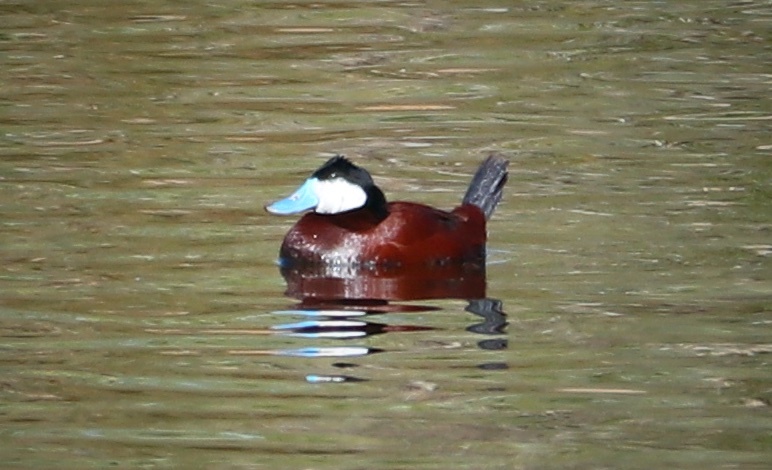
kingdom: Animalia
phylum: Chordata
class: Aves
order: Anseriformes
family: Anatidae
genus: Oxyura
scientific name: Oxyura jamaicensis
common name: Ruddy duck
